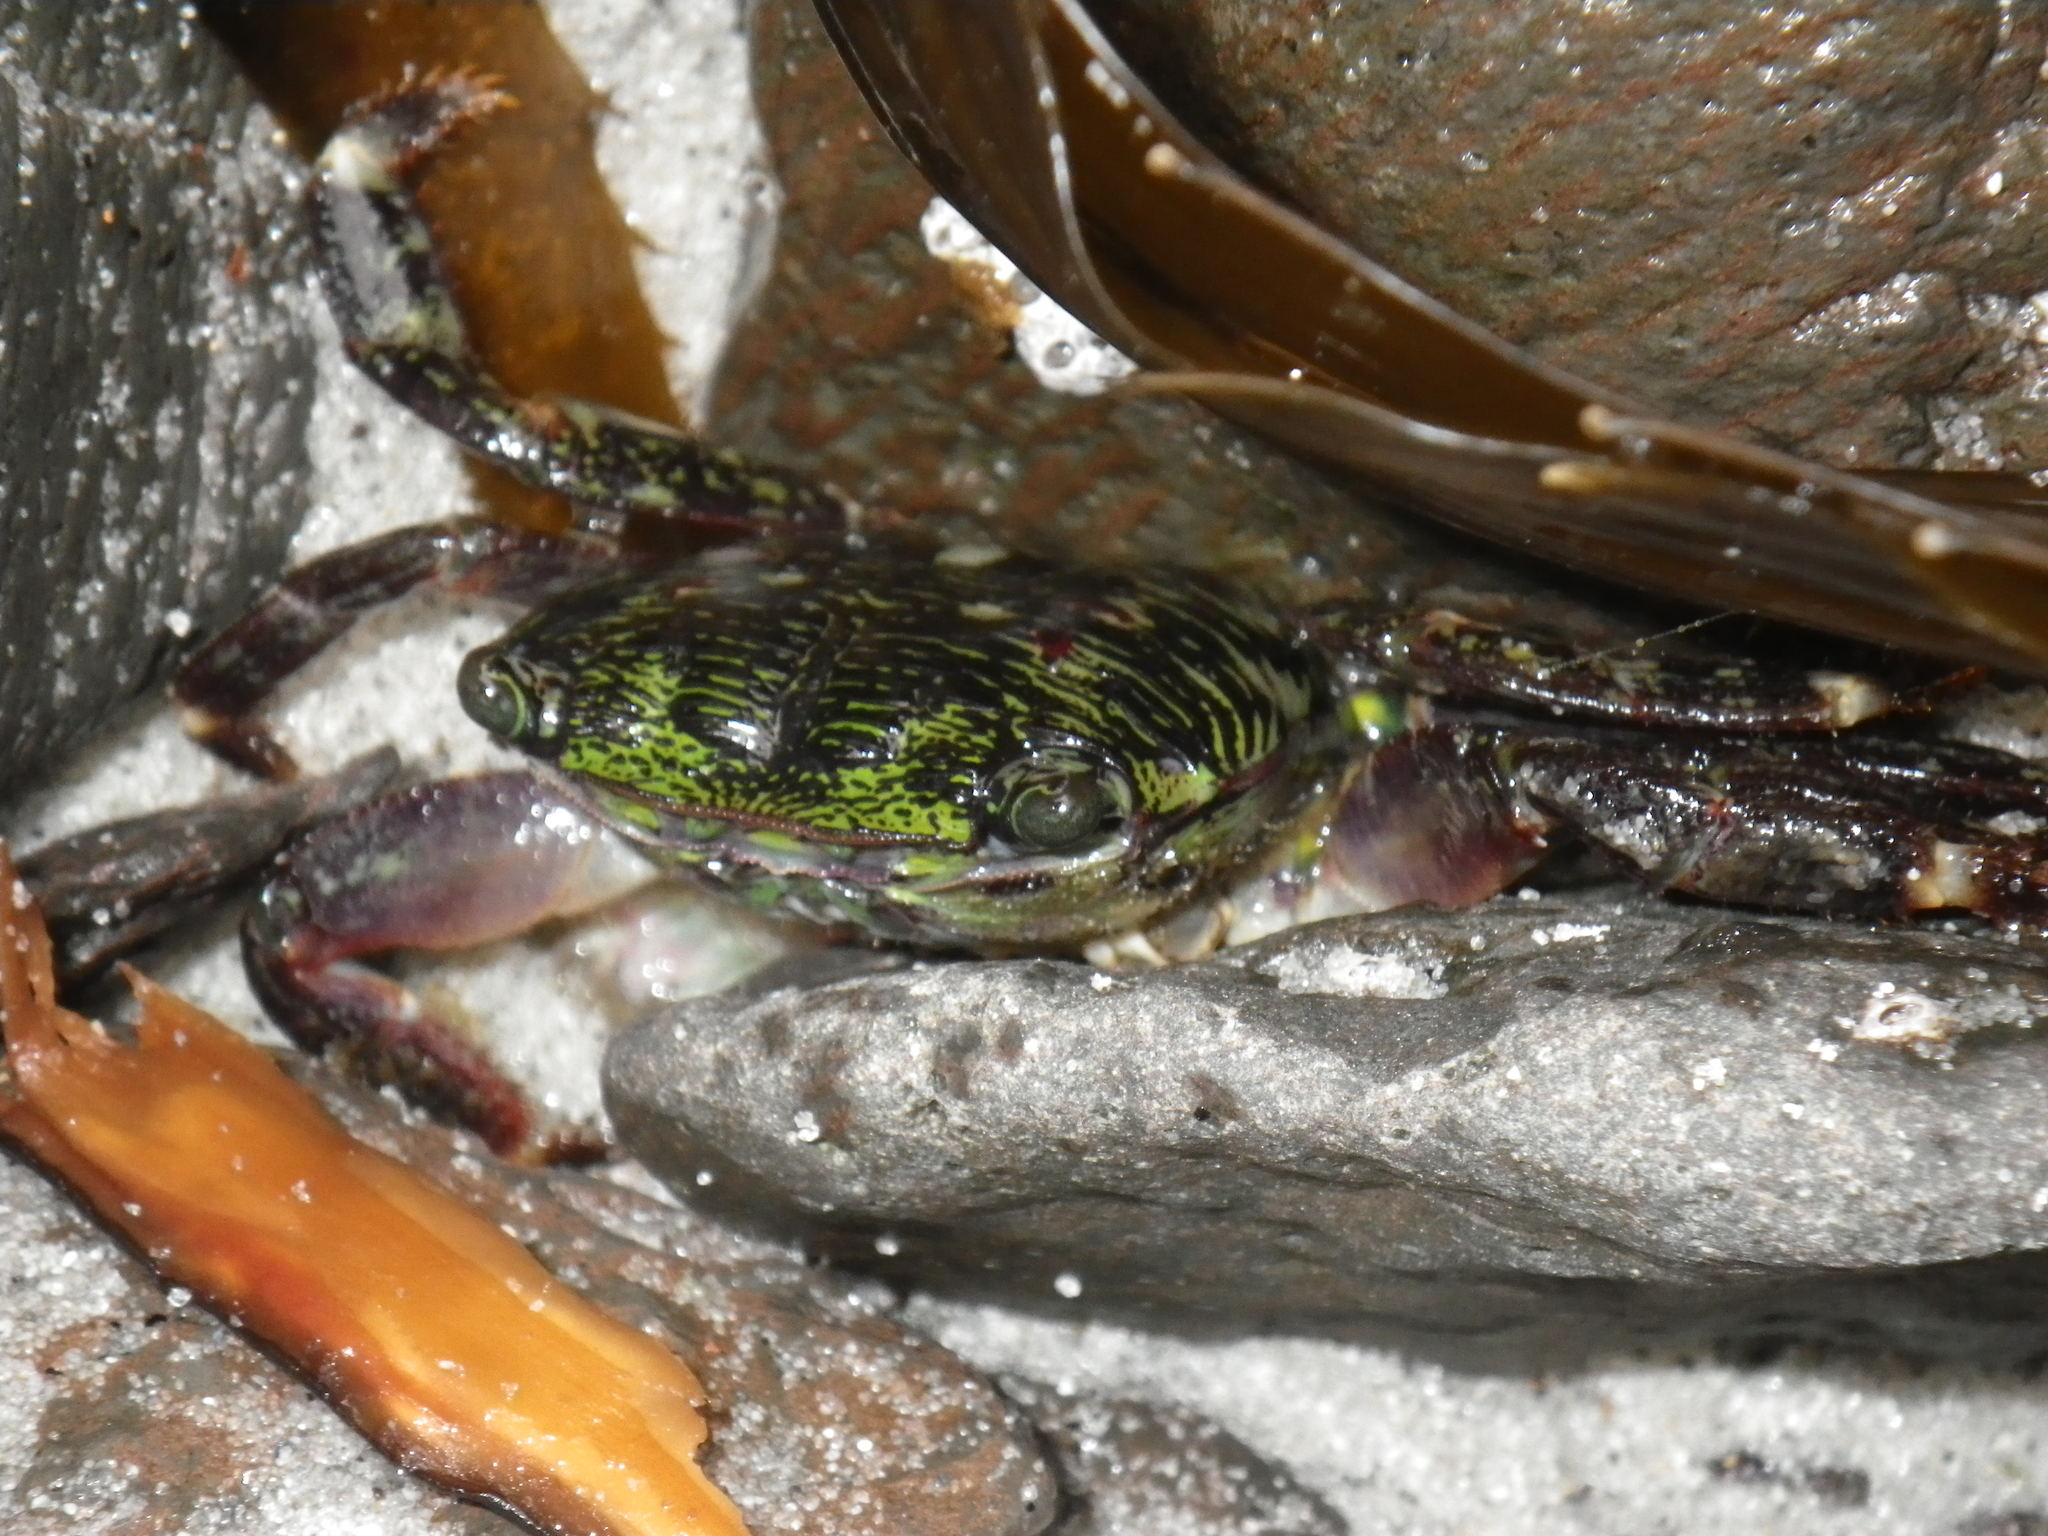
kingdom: Animalia
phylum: Arthropoda
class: Malacostraca
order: Decapoda
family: Grapsidae
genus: Pachygrapsus
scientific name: Pachygrapsus crassipes
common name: Striped shore crab
